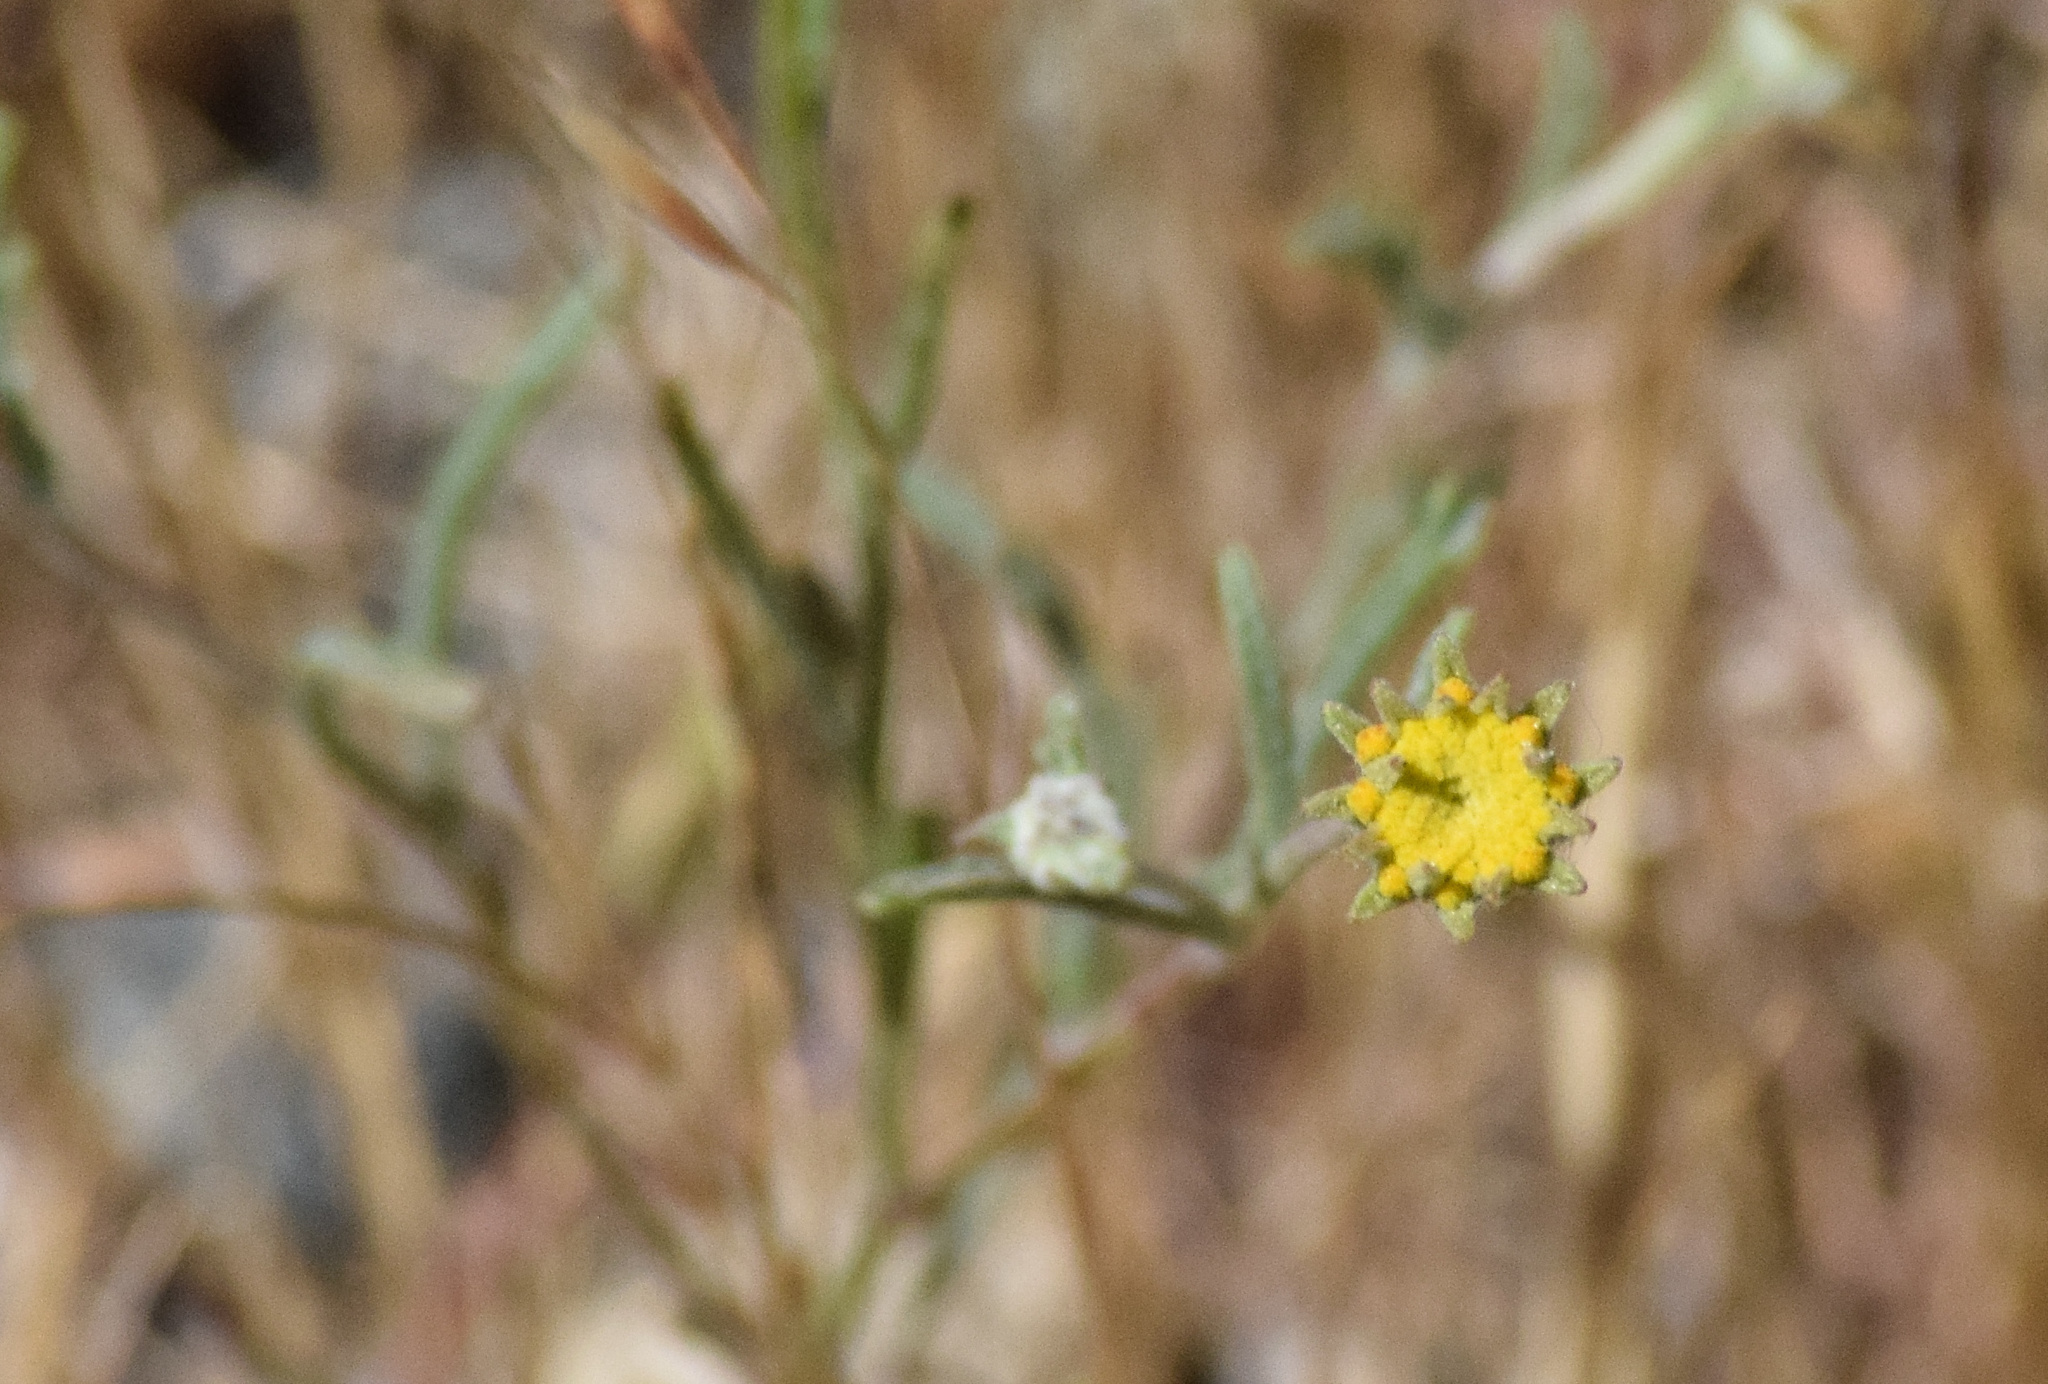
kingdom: Plantae
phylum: Tracheophyta
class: Magnoliopsida
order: Asterales
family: Asteraceae
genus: Chaenactis
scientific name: Chaenactis glabriuscula
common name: Yellow pincushion
